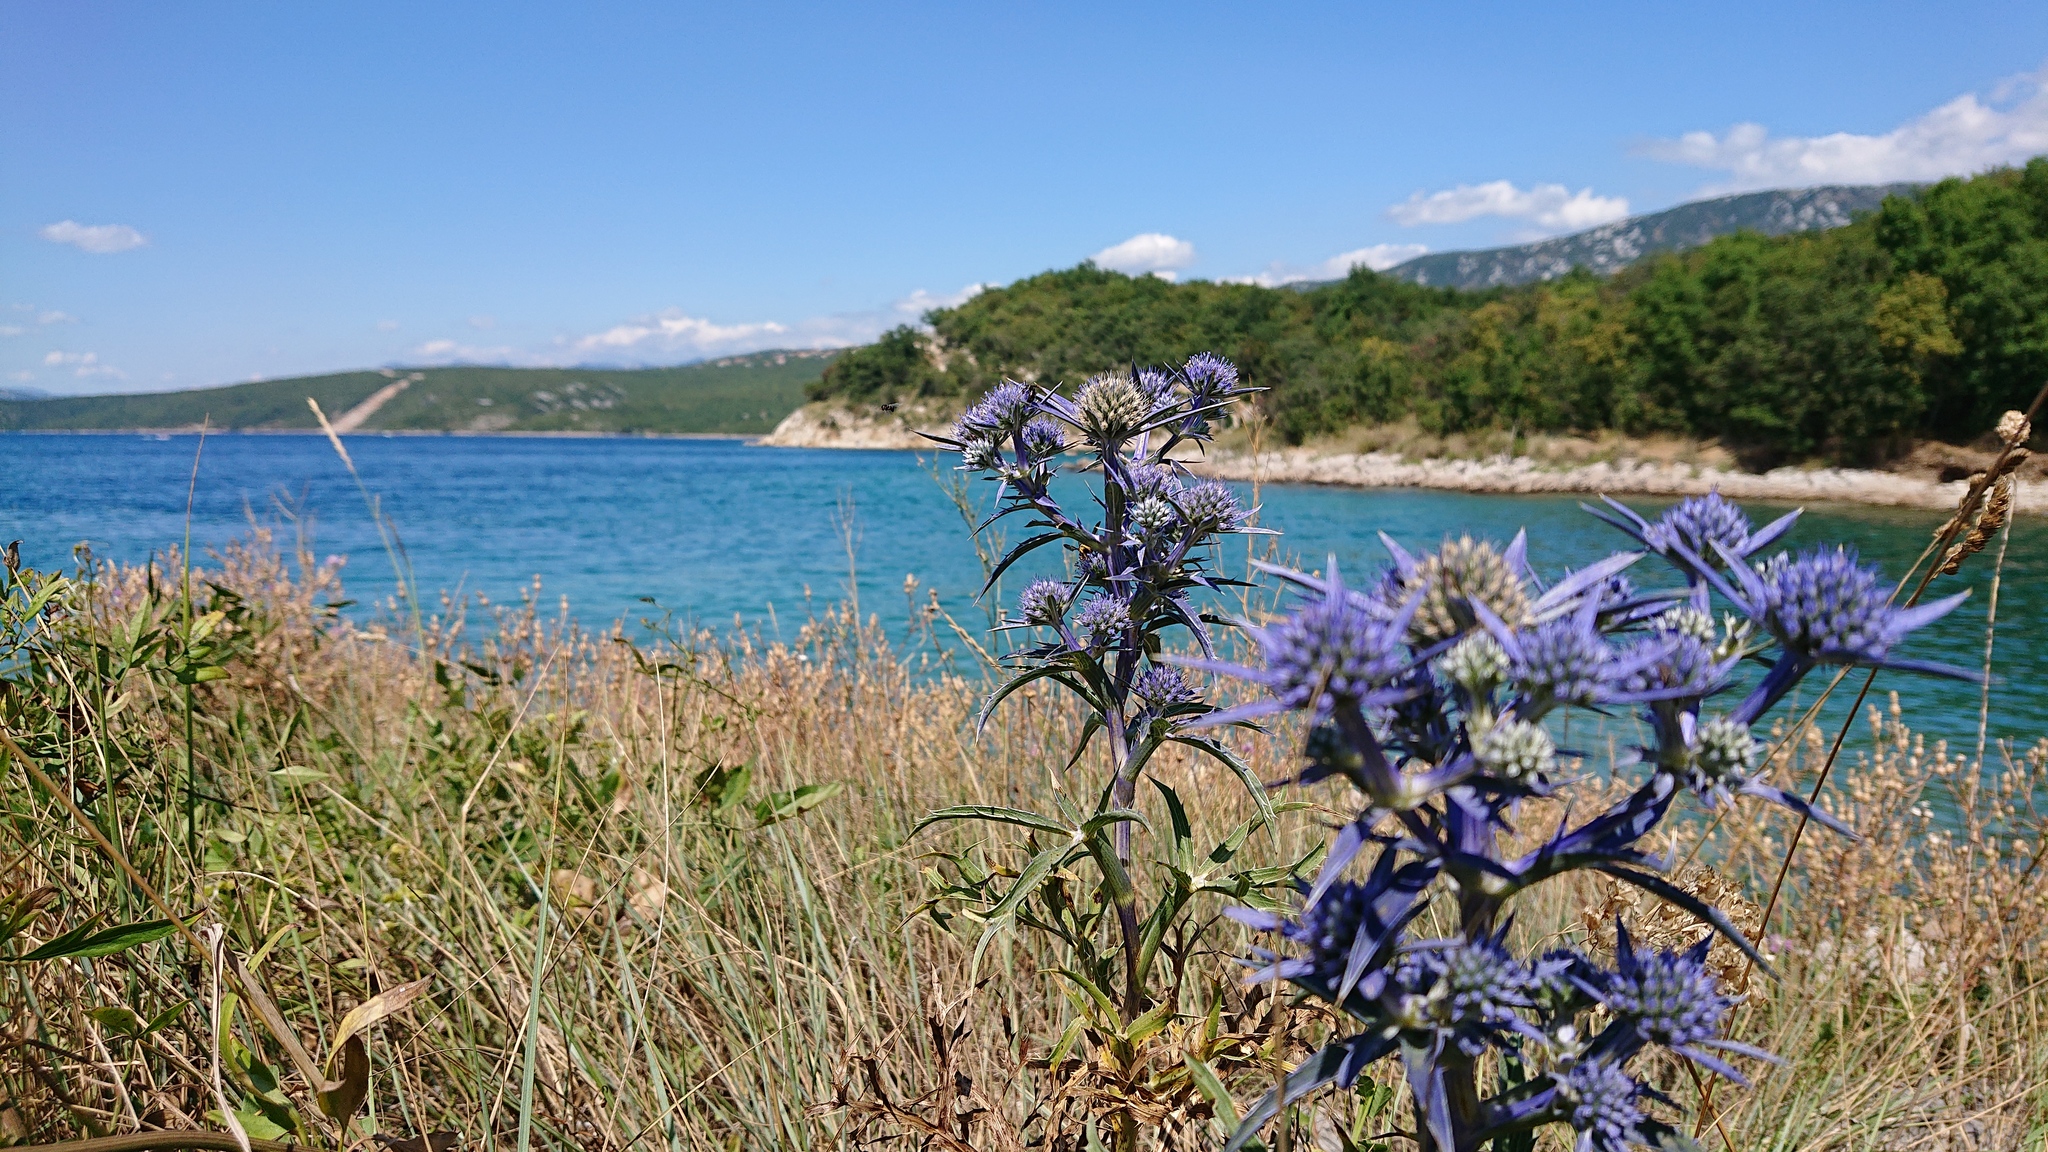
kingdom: Plantae
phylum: Tracheophyta
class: Magnoliopsida
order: Apiales
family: Apiaceae
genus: Eryngium
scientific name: Eryngium amethystinum
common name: Amethyst eryngo
